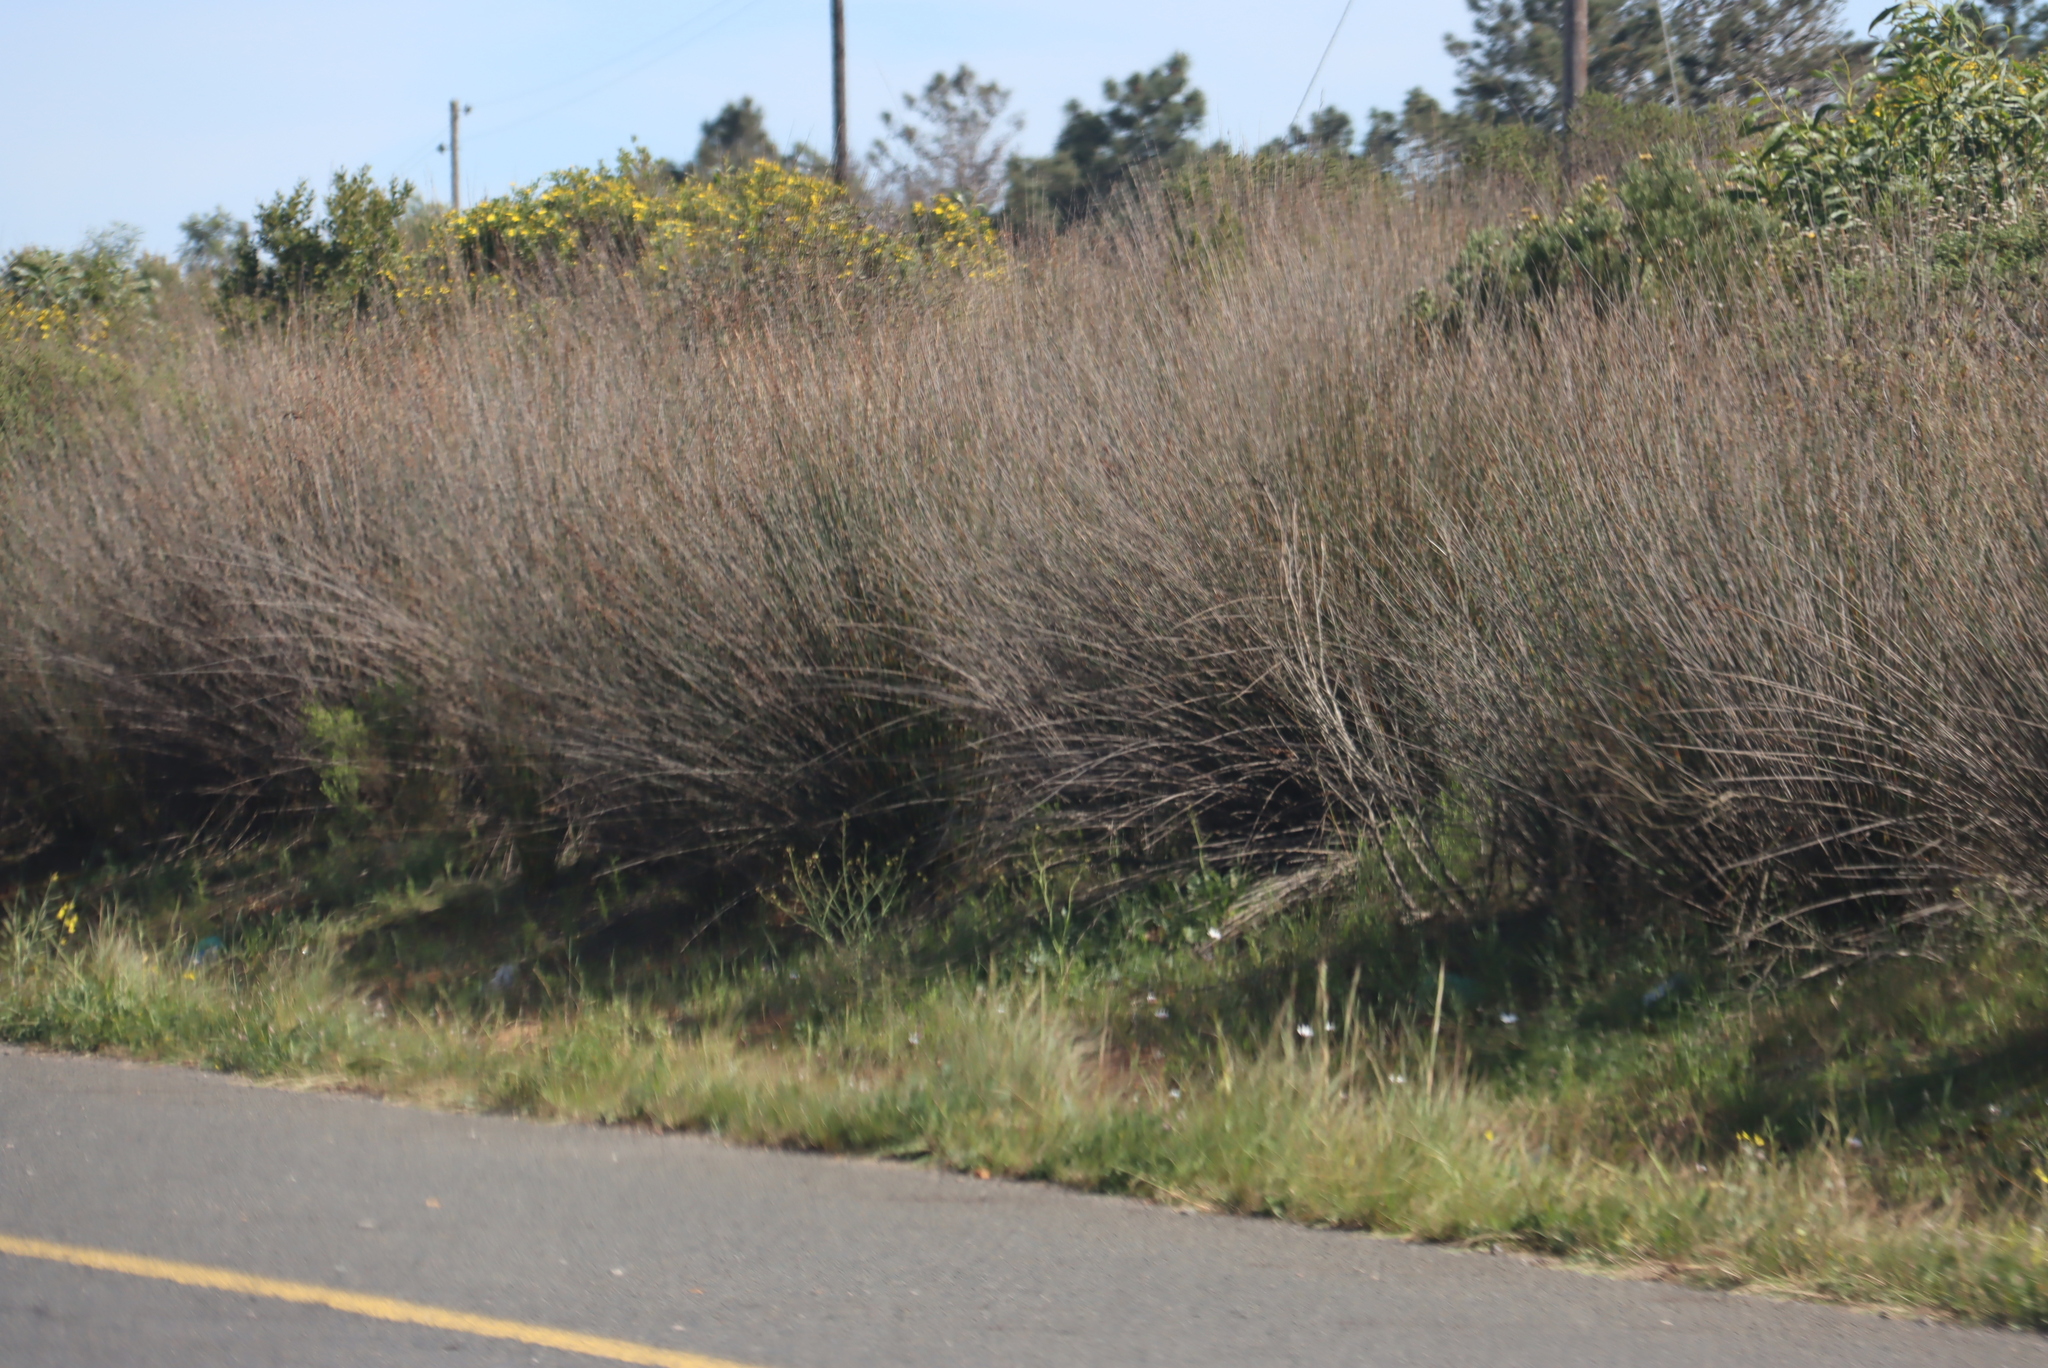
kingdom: Plantae
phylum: Tracheophyta
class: Liliopsida
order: Poales
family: Restionaceae
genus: Thamnochortus
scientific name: Thamnochortus insignis
